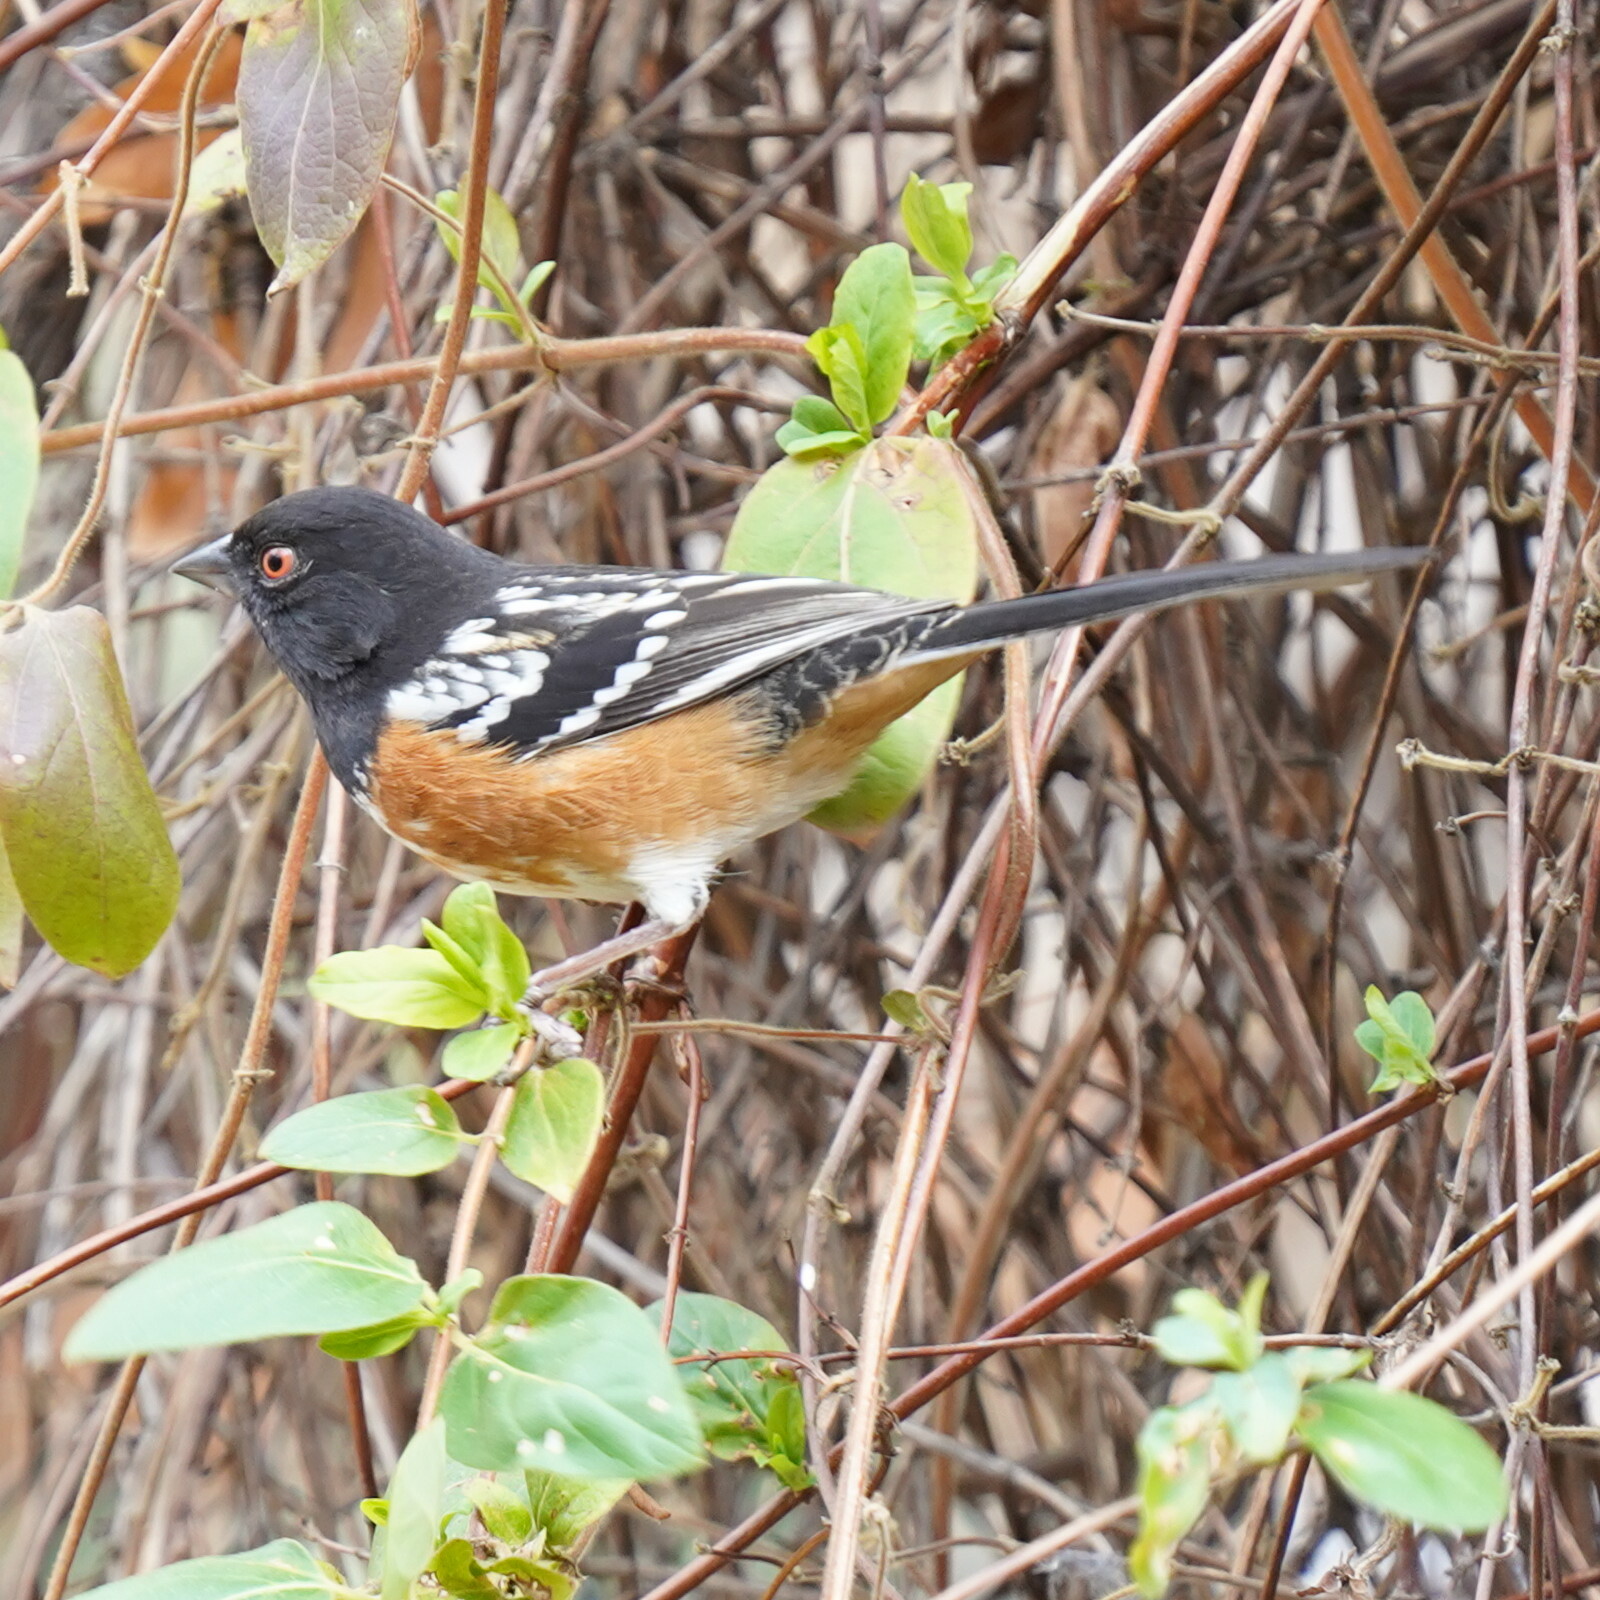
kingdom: Animalia
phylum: Chordata
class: Aves
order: Passeriformes
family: Passerellidae
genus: Pipilo
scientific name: Pipilo maculatus
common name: Spotted towhee
